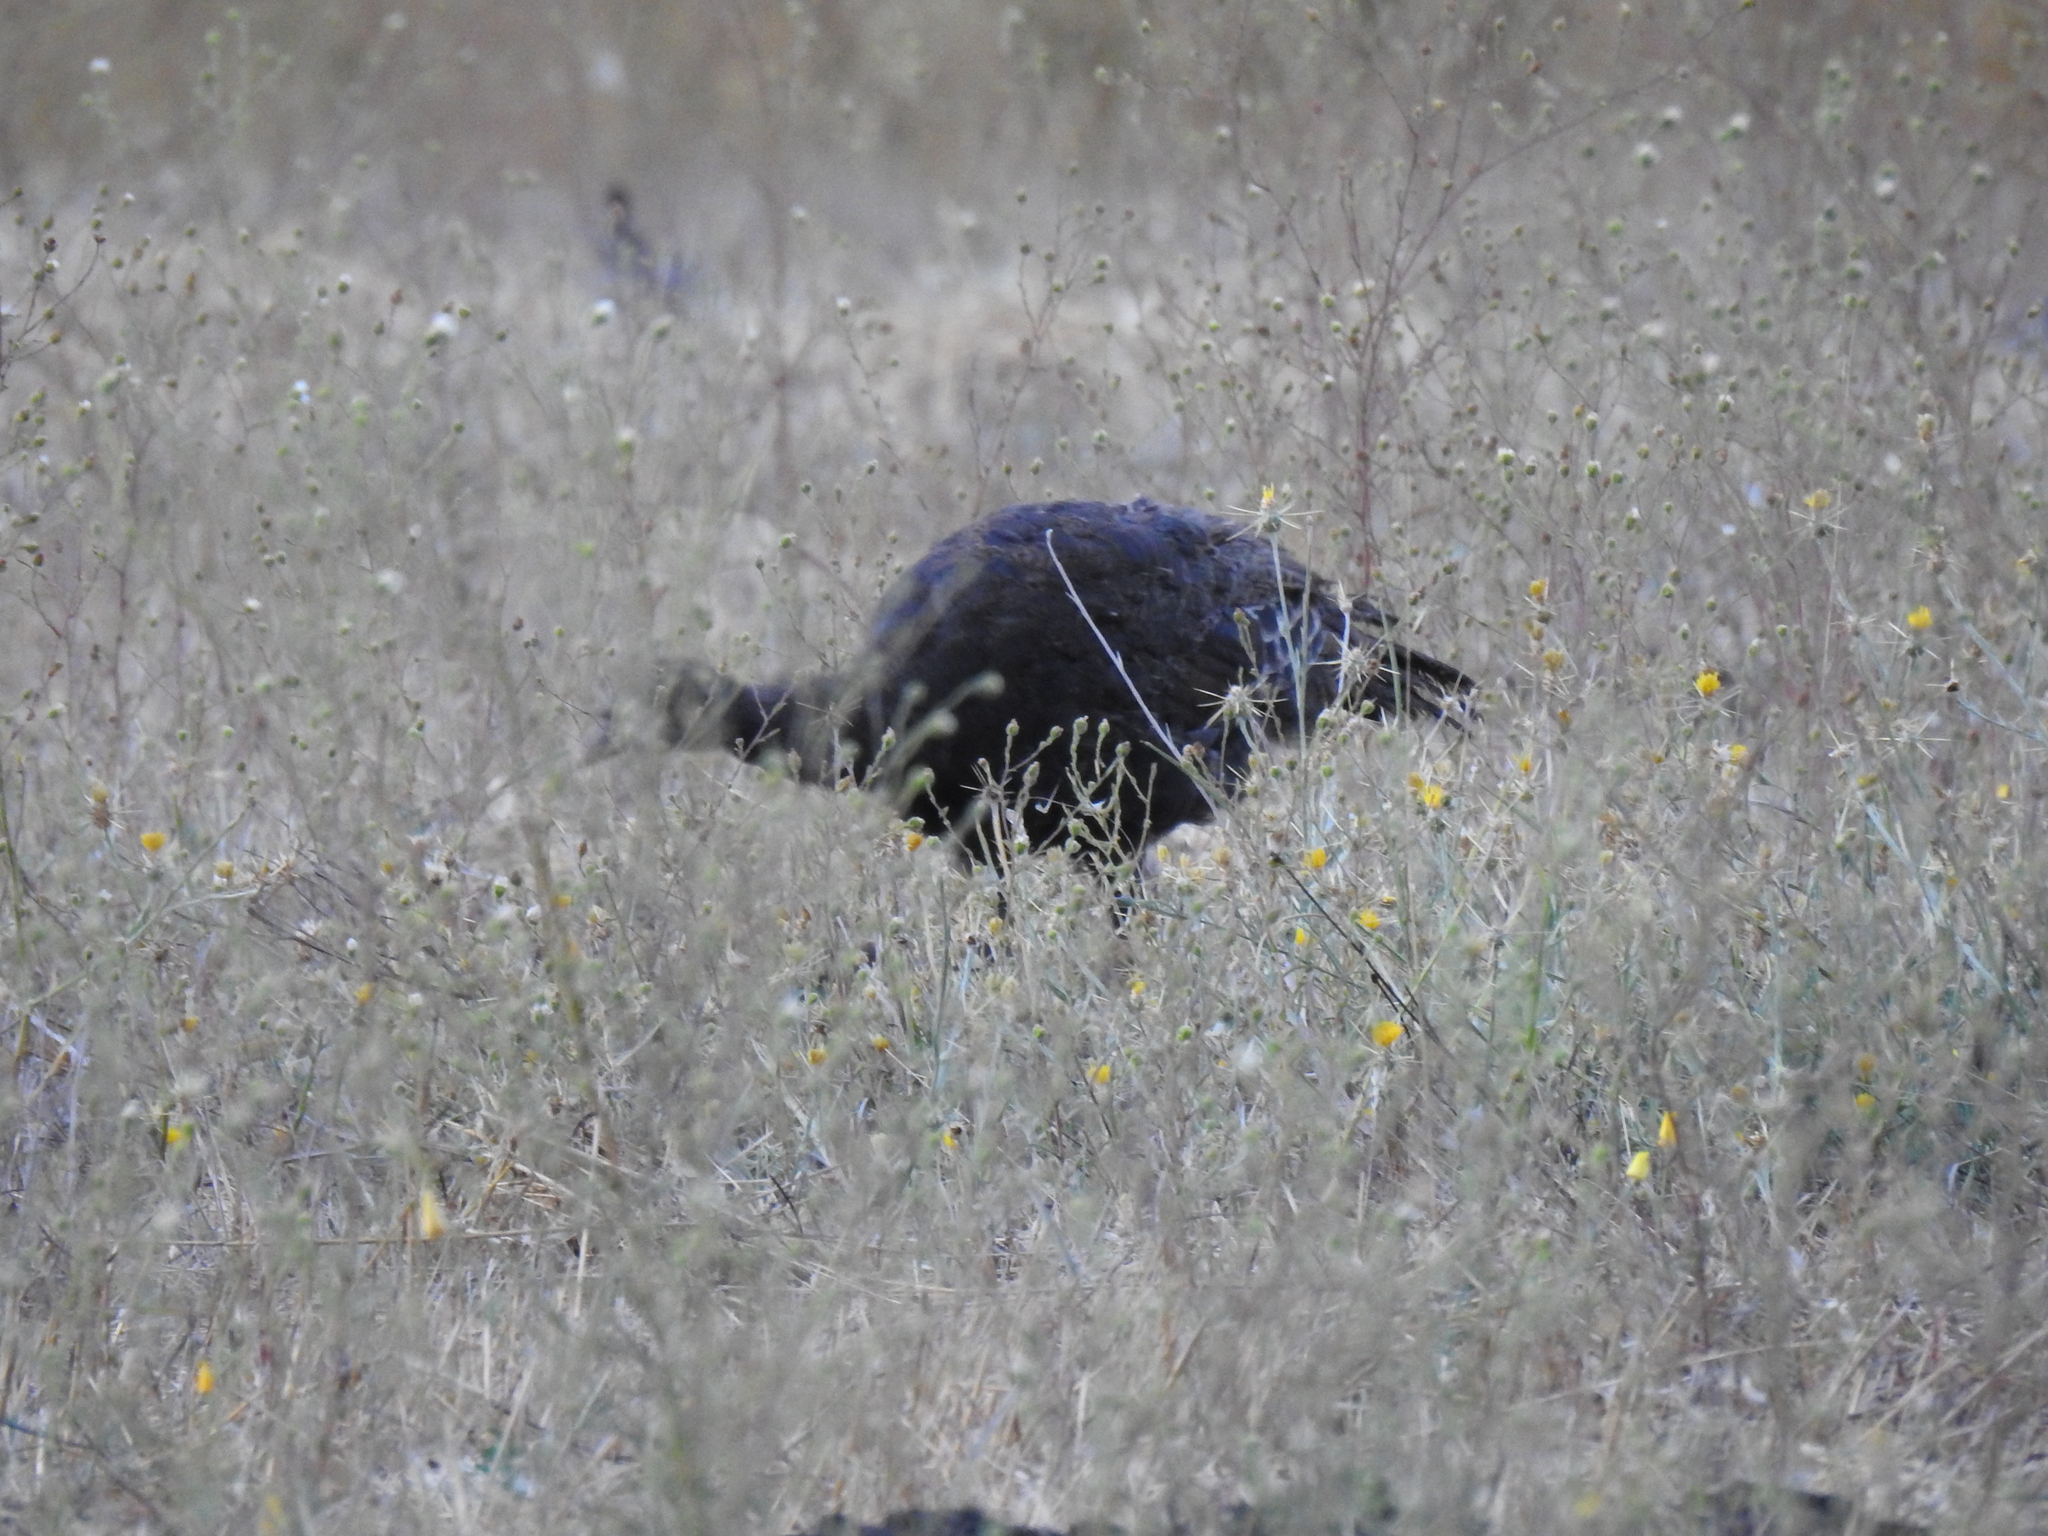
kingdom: Animalia
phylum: Chordata
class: Aves
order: Galliformes
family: Phasianidae
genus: Meleagris
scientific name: Meleagris gallopavo
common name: Wild turkey
